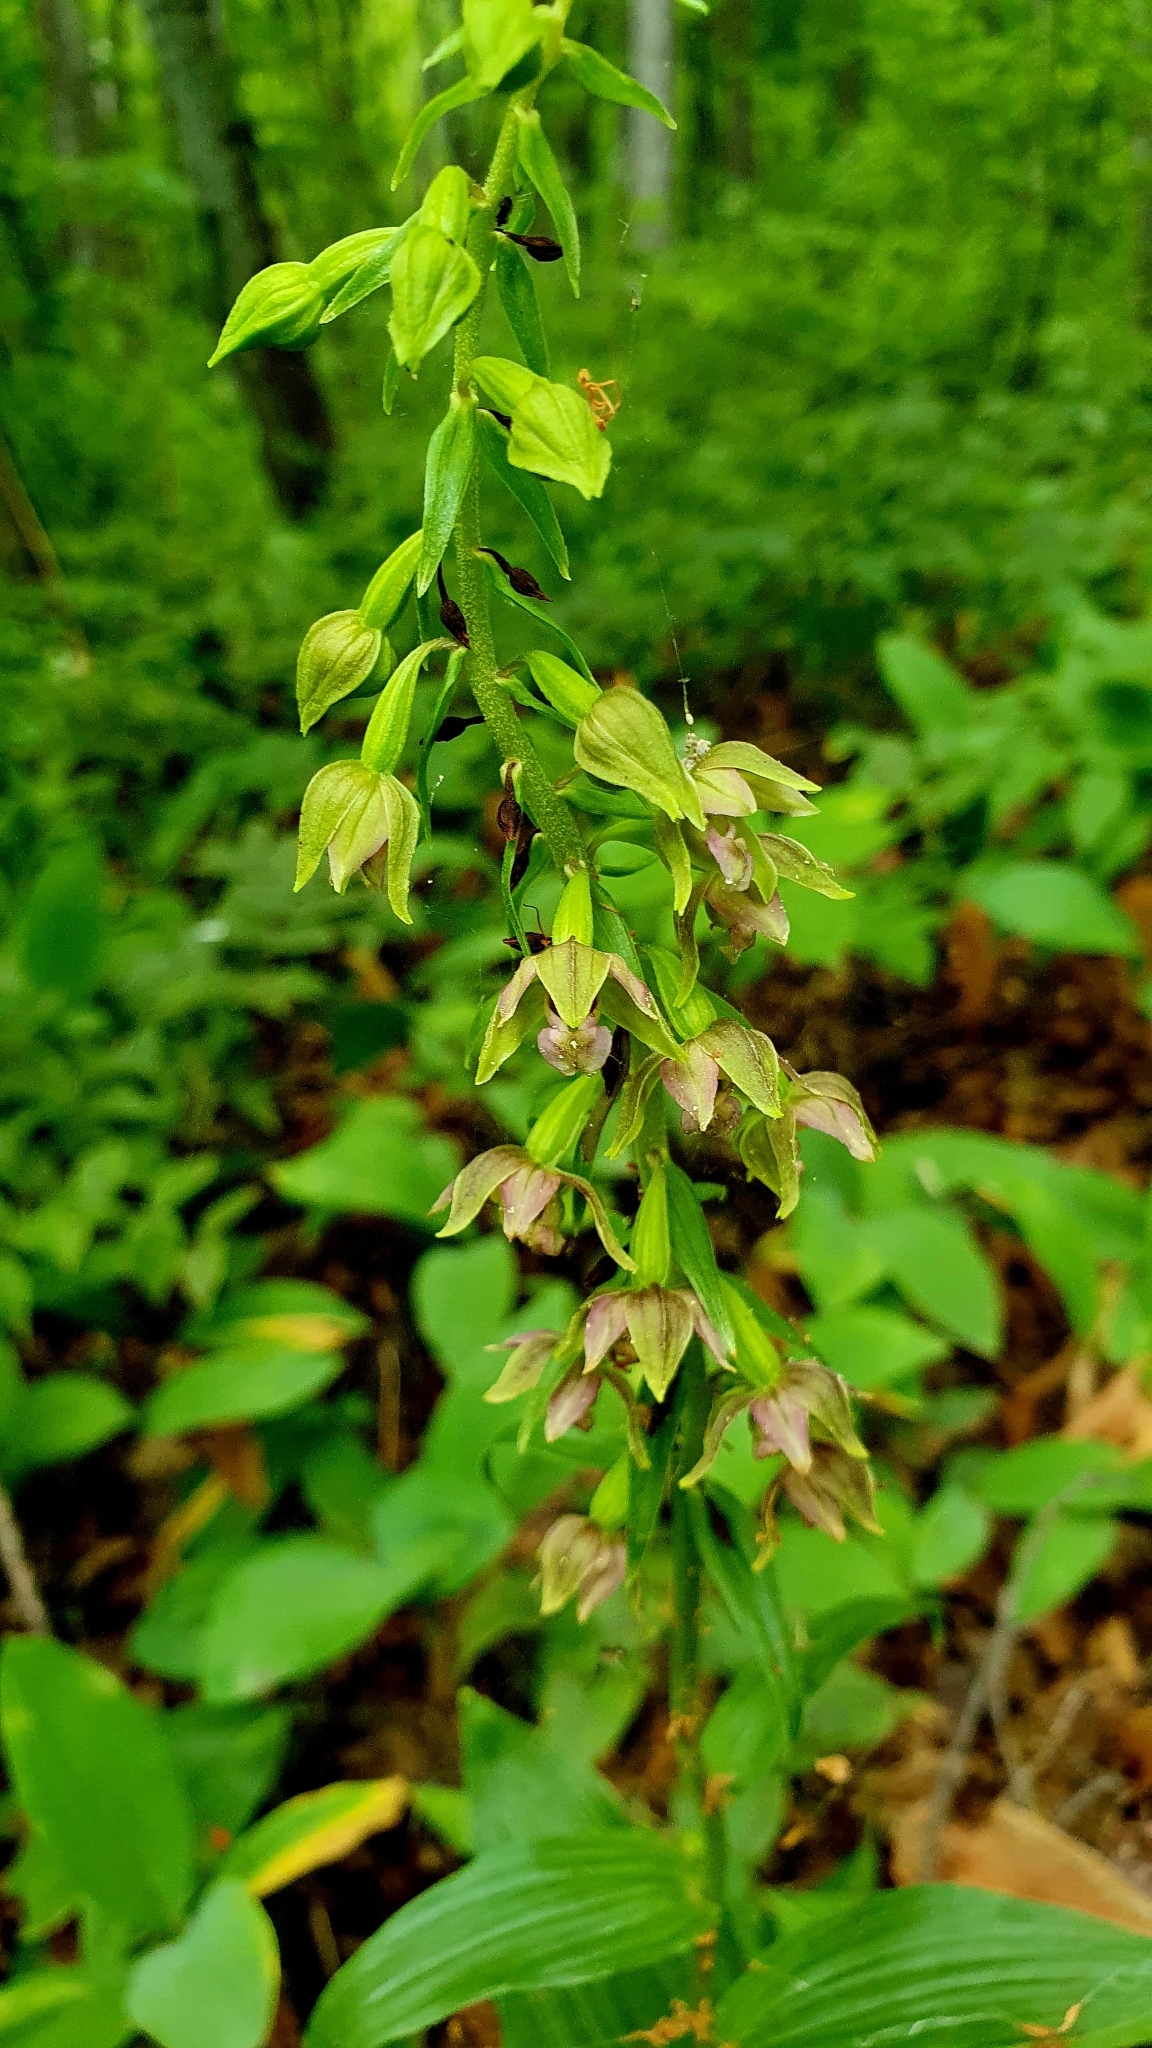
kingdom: Plantae
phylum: Tracheophyta
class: Liliopsida
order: Asparagales
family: Orchidaceae
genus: Epipactis
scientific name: Epipactis helleborine
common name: Broad-leaved helleborine
